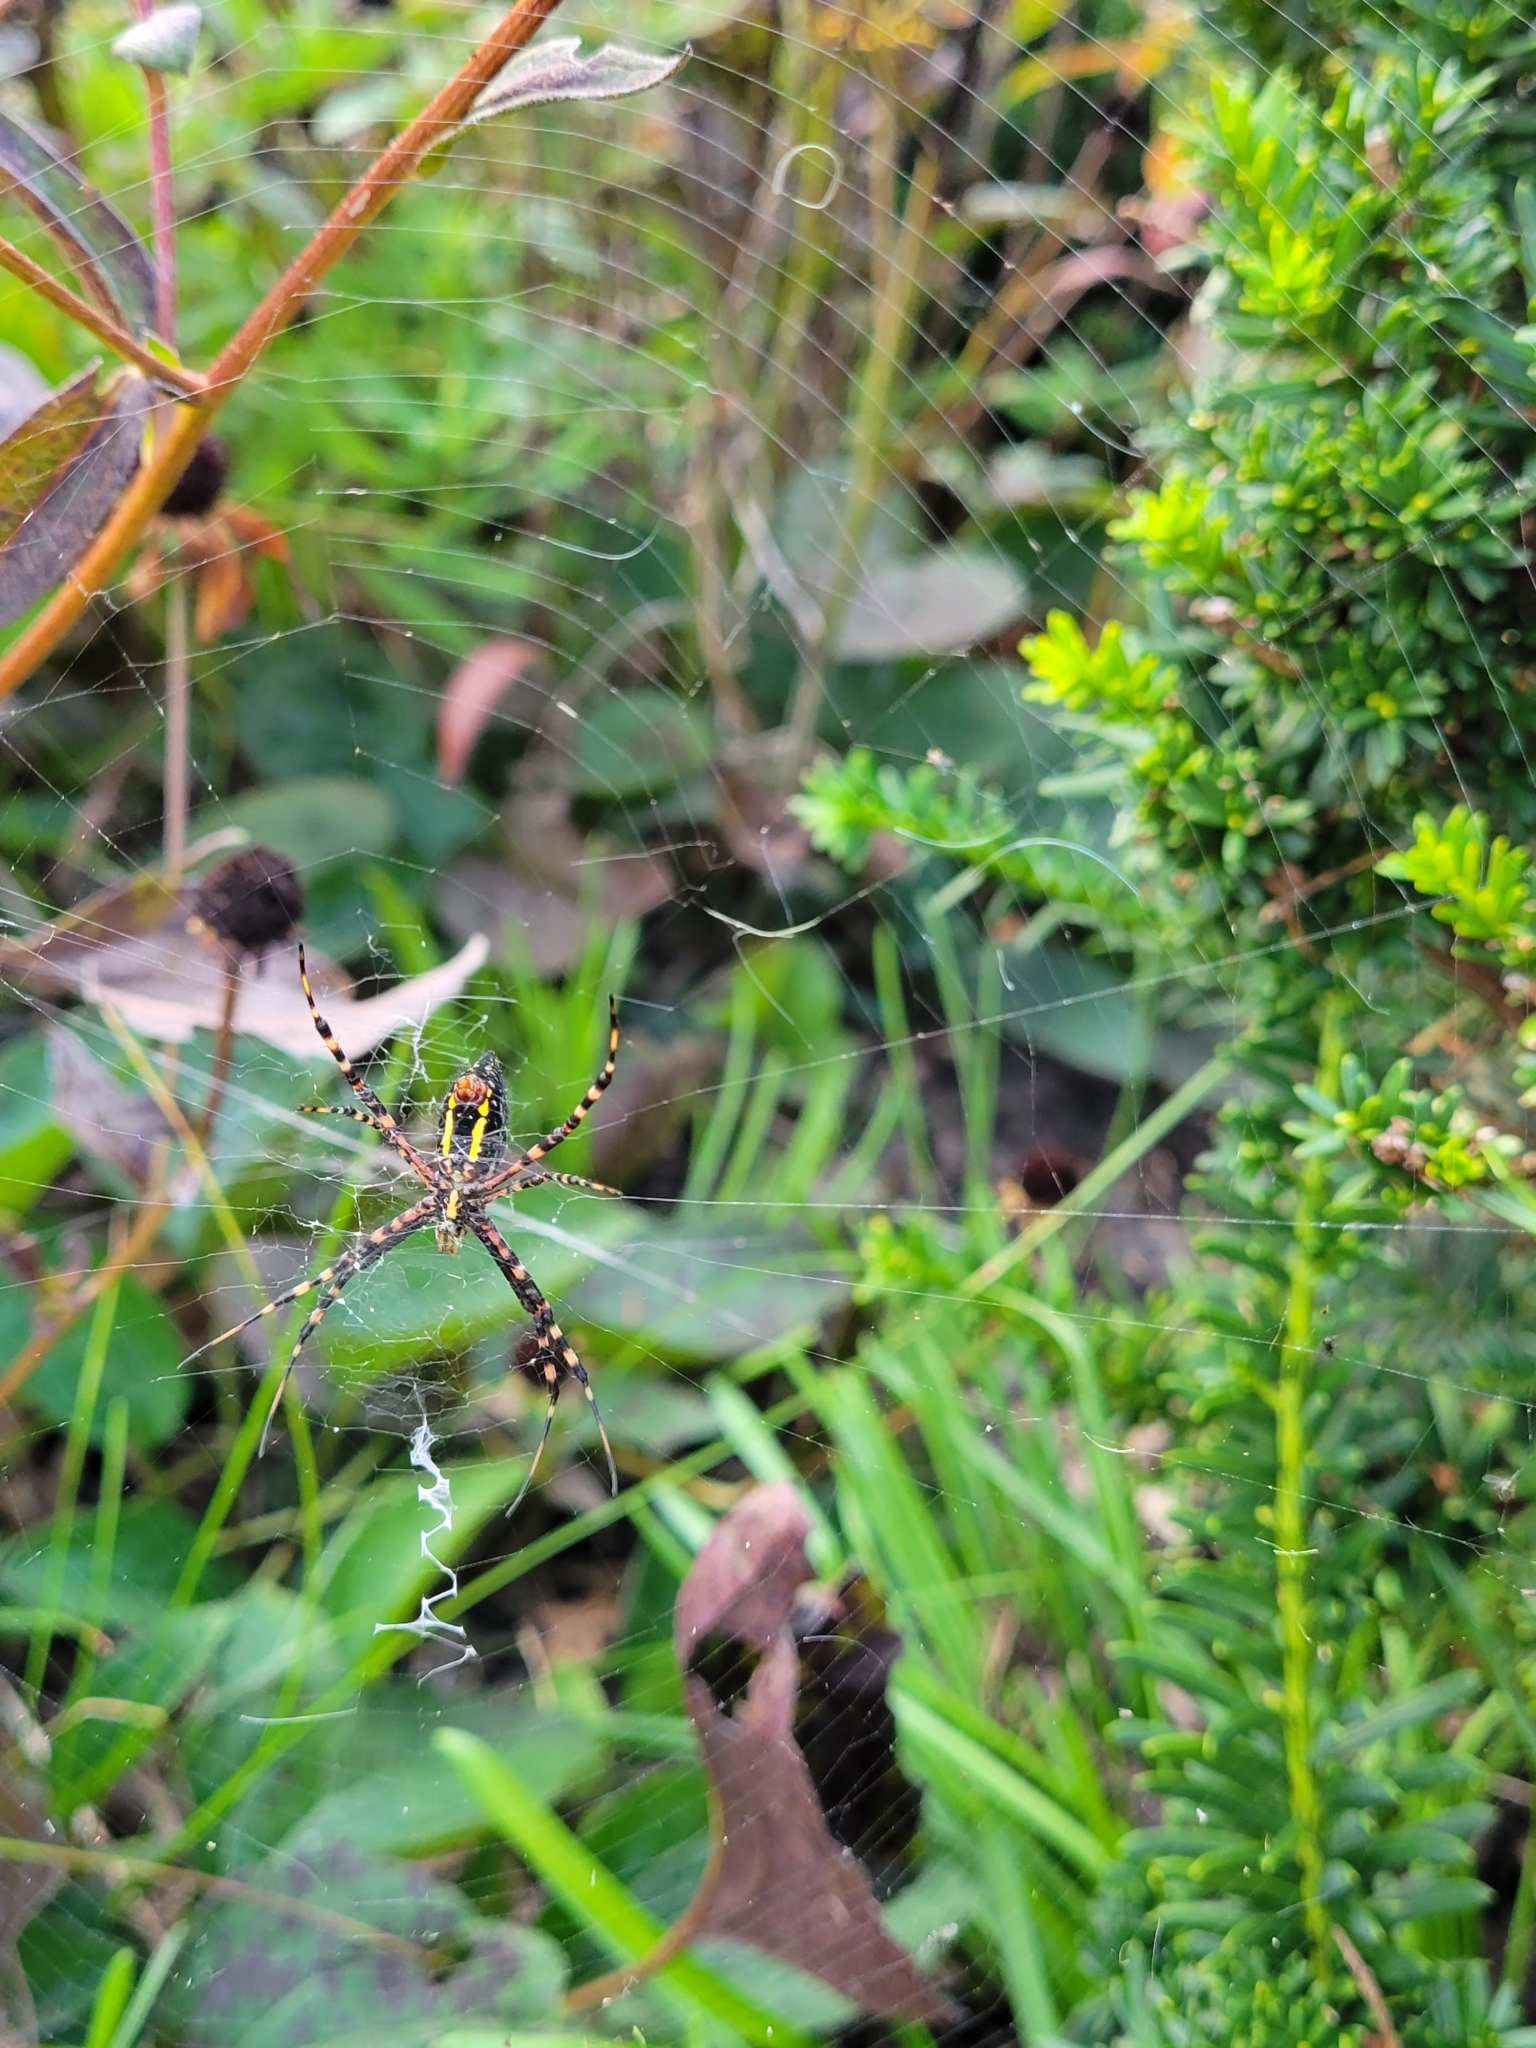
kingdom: Animalia
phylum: Arthropoda
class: Arachnida
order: Araneae
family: Araneidae
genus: Argiope
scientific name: Argiope trifasciata
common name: Banded garden spider
